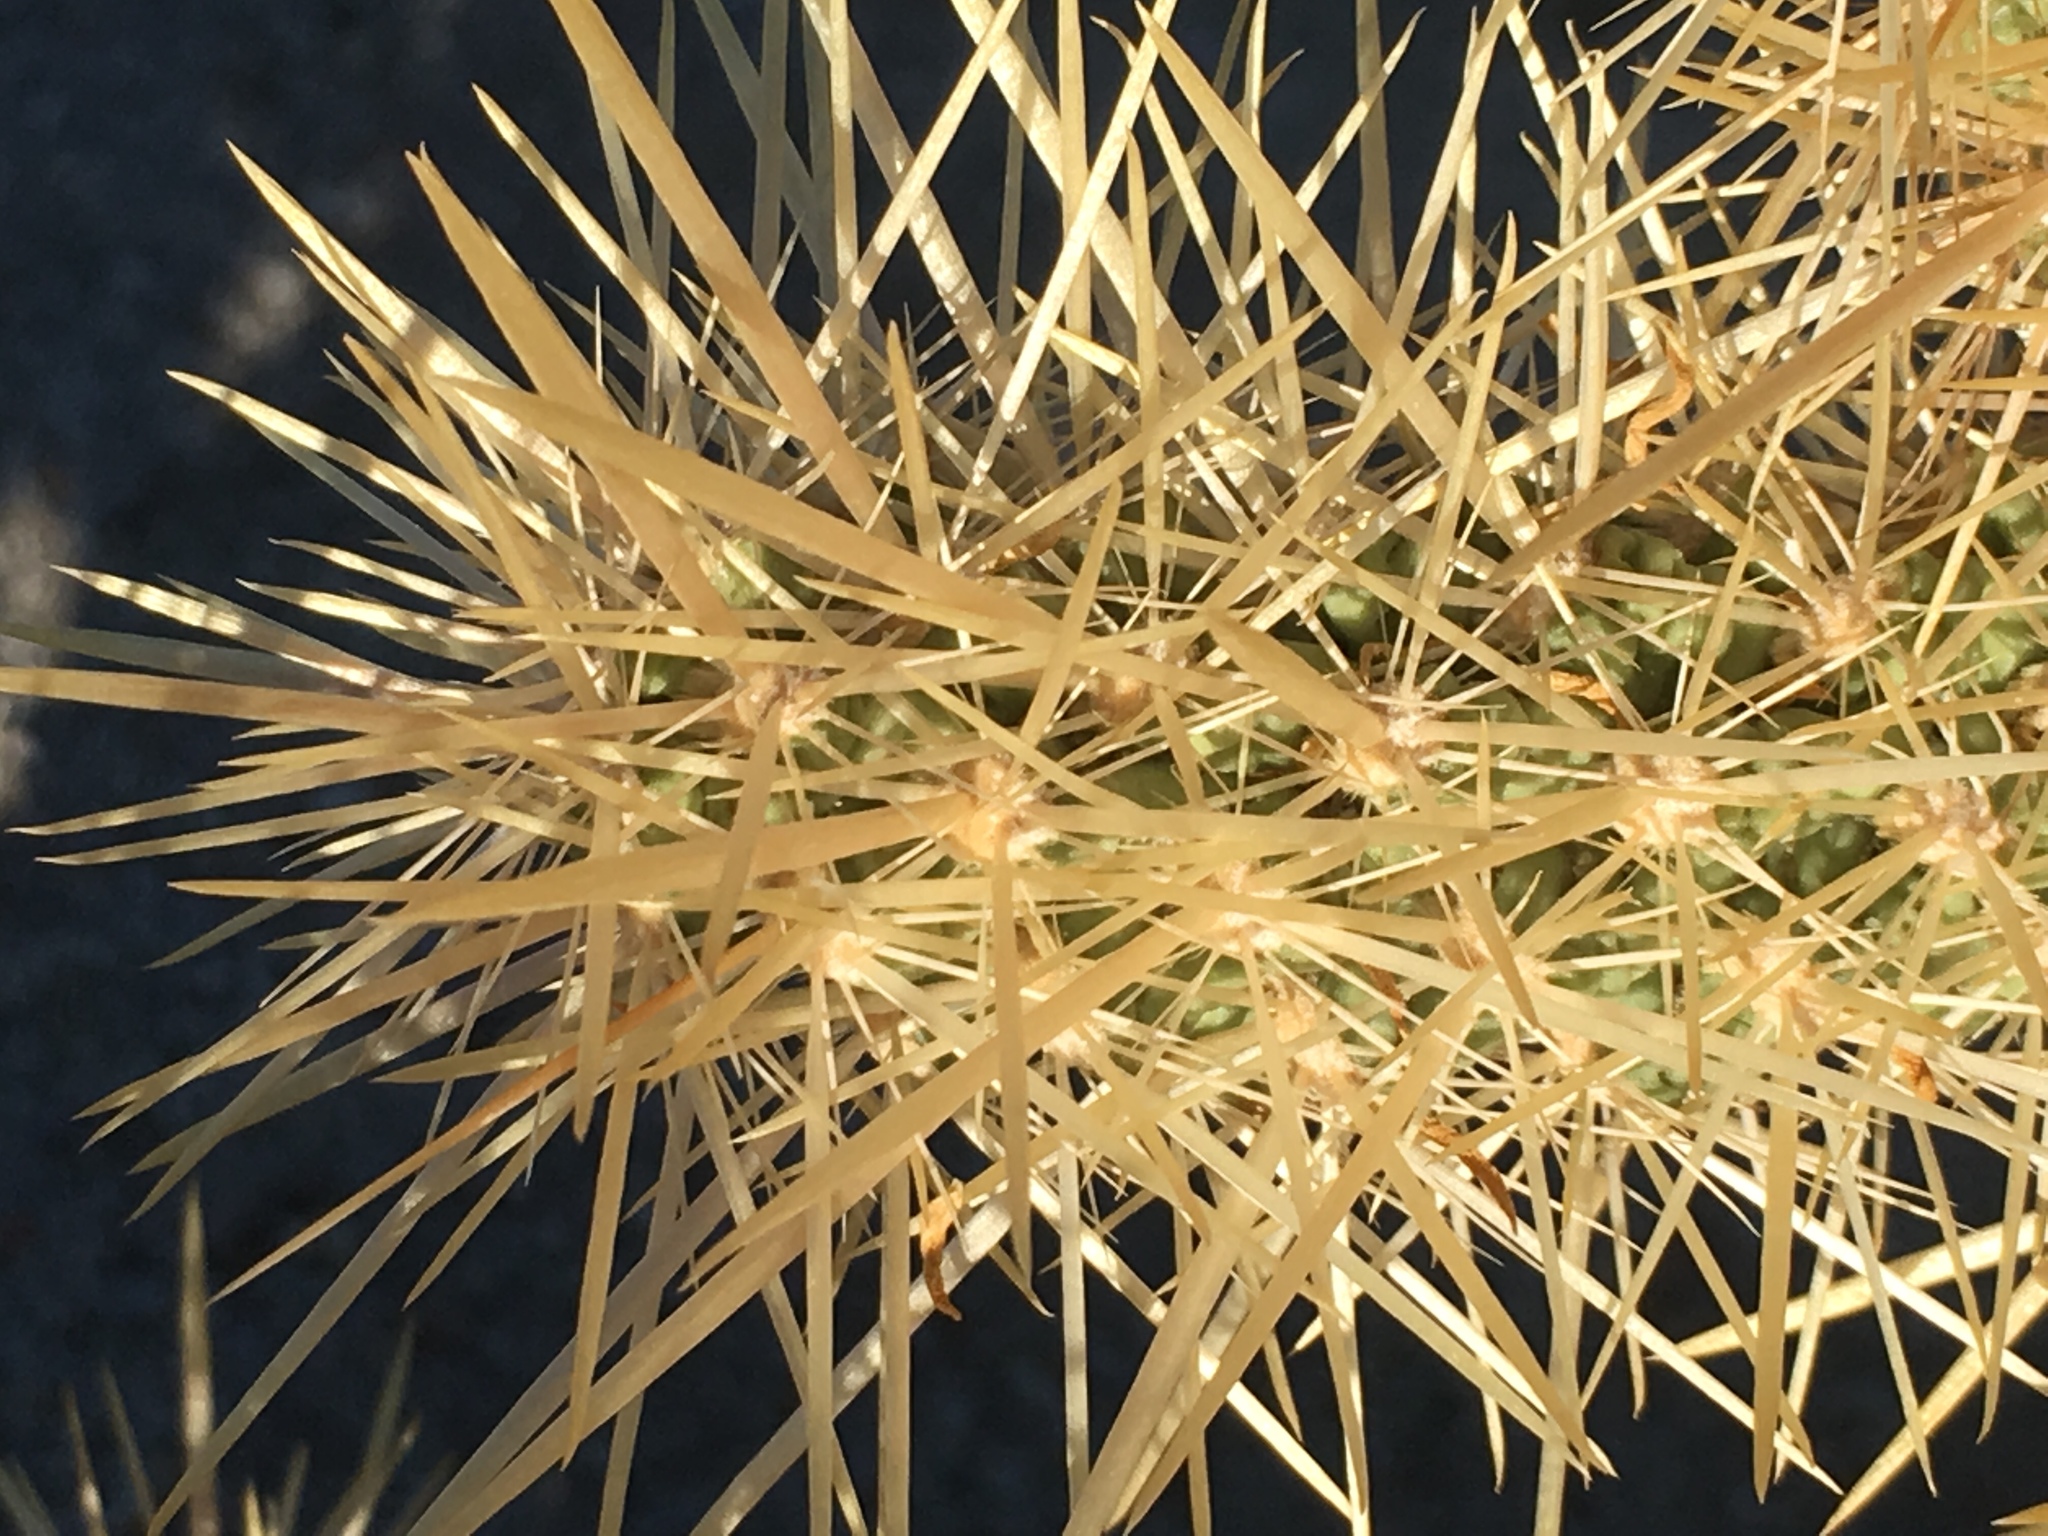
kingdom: Plantae
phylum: Tracheophyta
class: Magnoliopsida
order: Caryophyllales
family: Cactaceae
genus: Cylindropuntia
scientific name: Cylindropuntia echinocarpa
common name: Ground cholla
